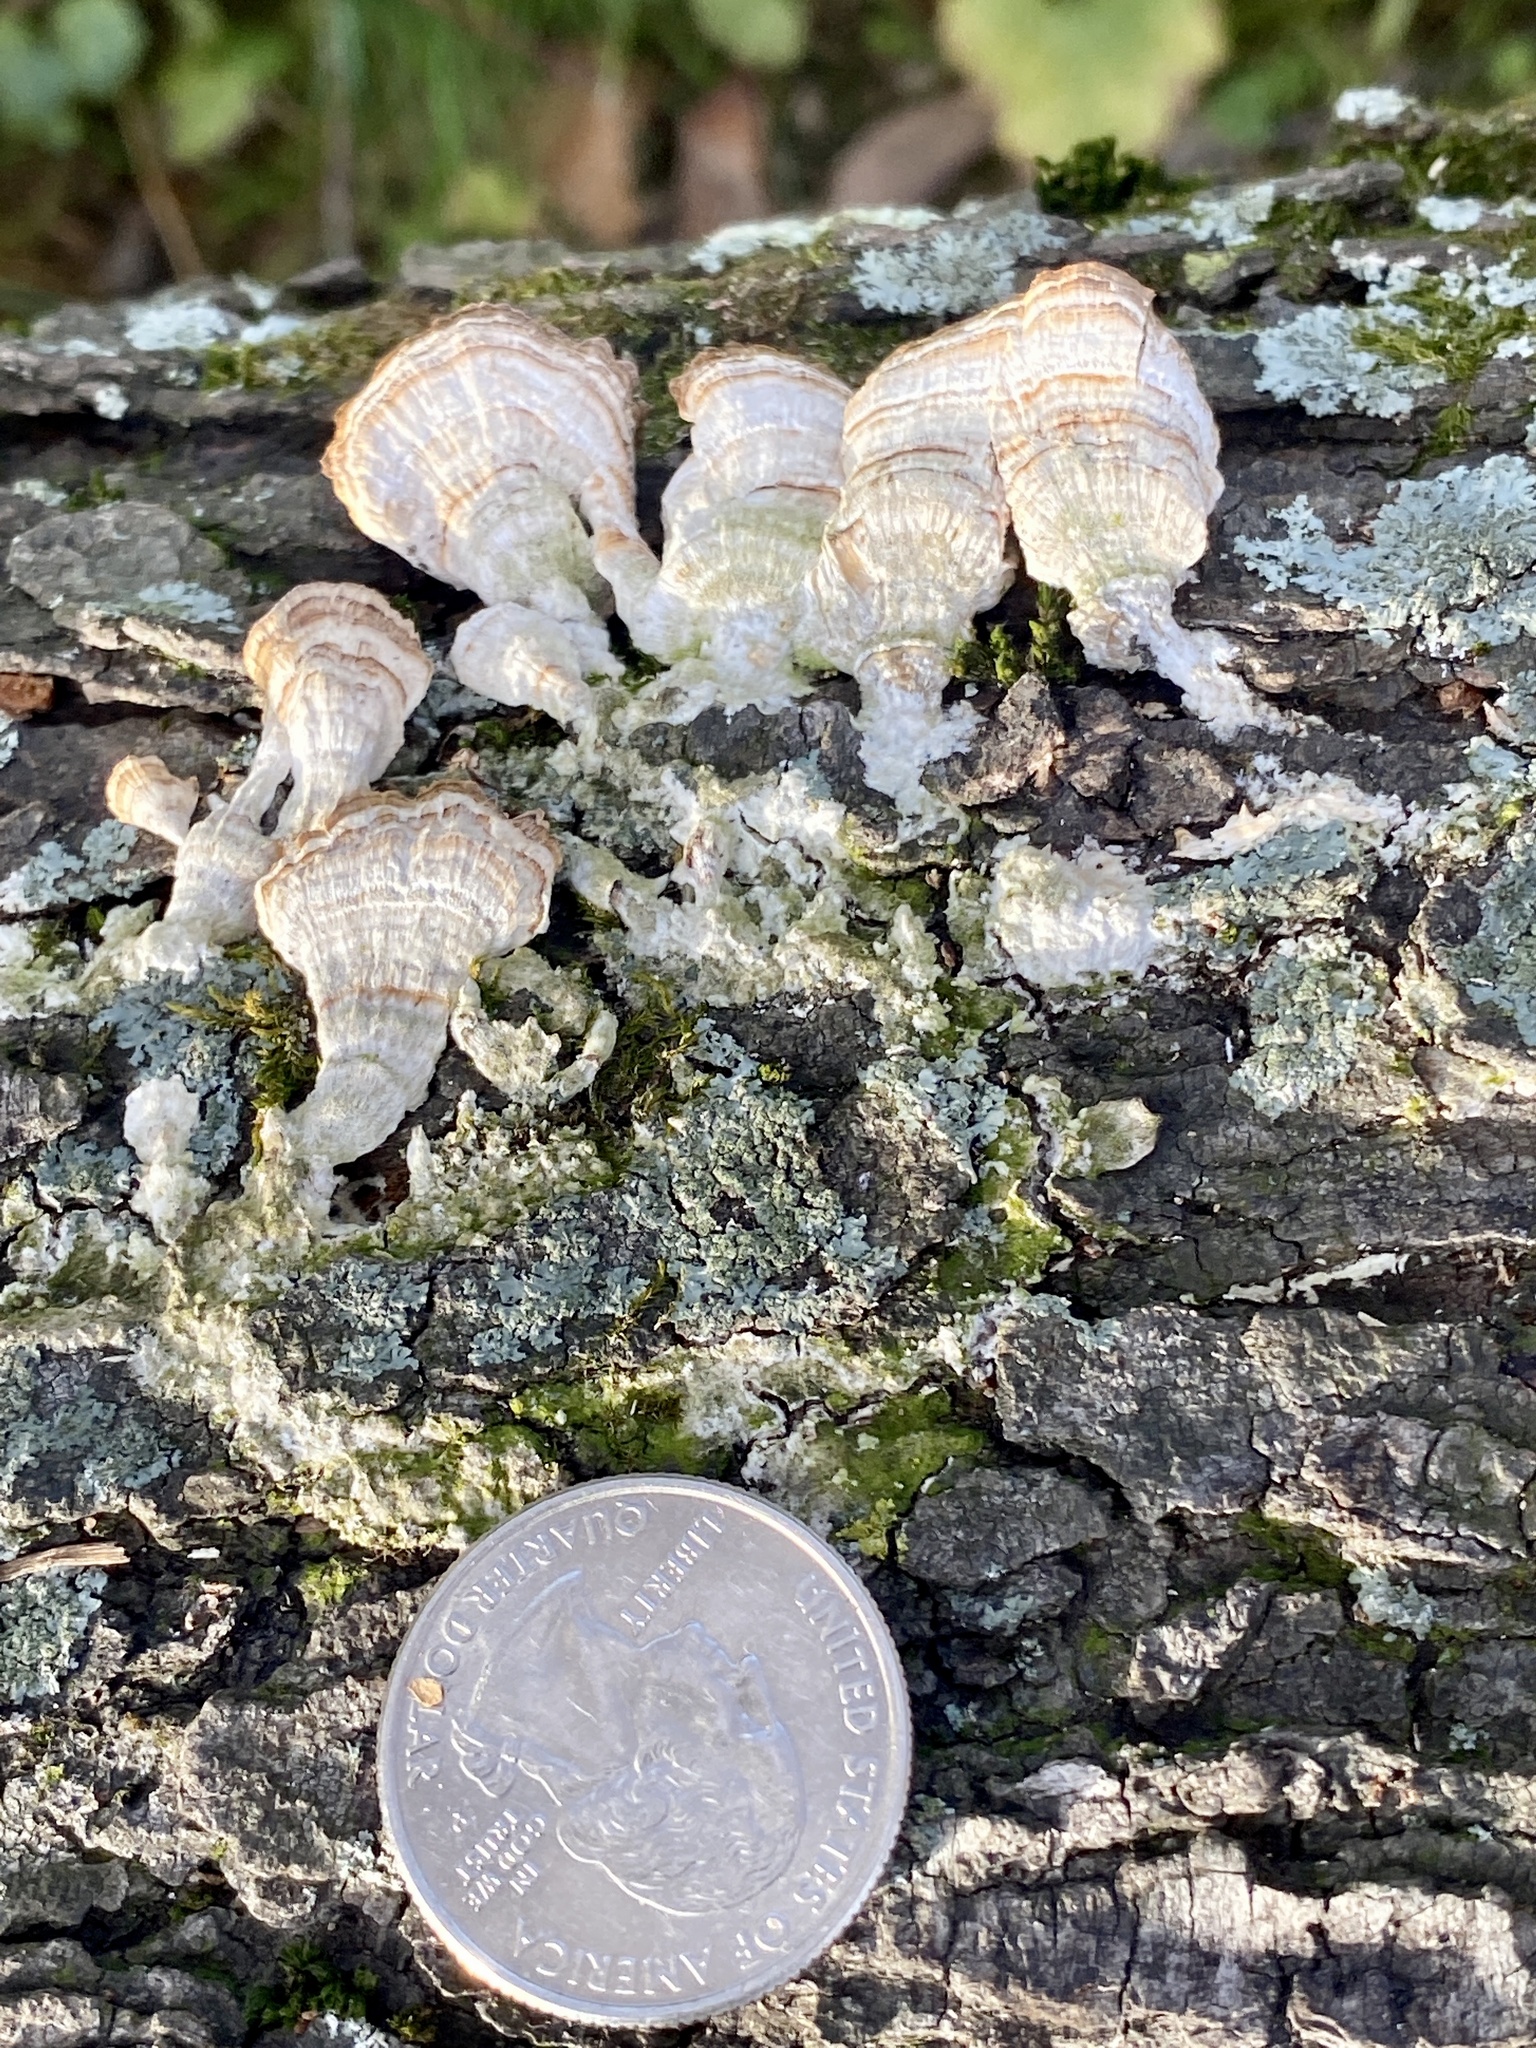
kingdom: Fungi
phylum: Basidiomycota
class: Agaricomycetes
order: Hymenochaetales
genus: Trichaptum
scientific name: Trichaptum biforme
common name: Violet-toothed polypore
